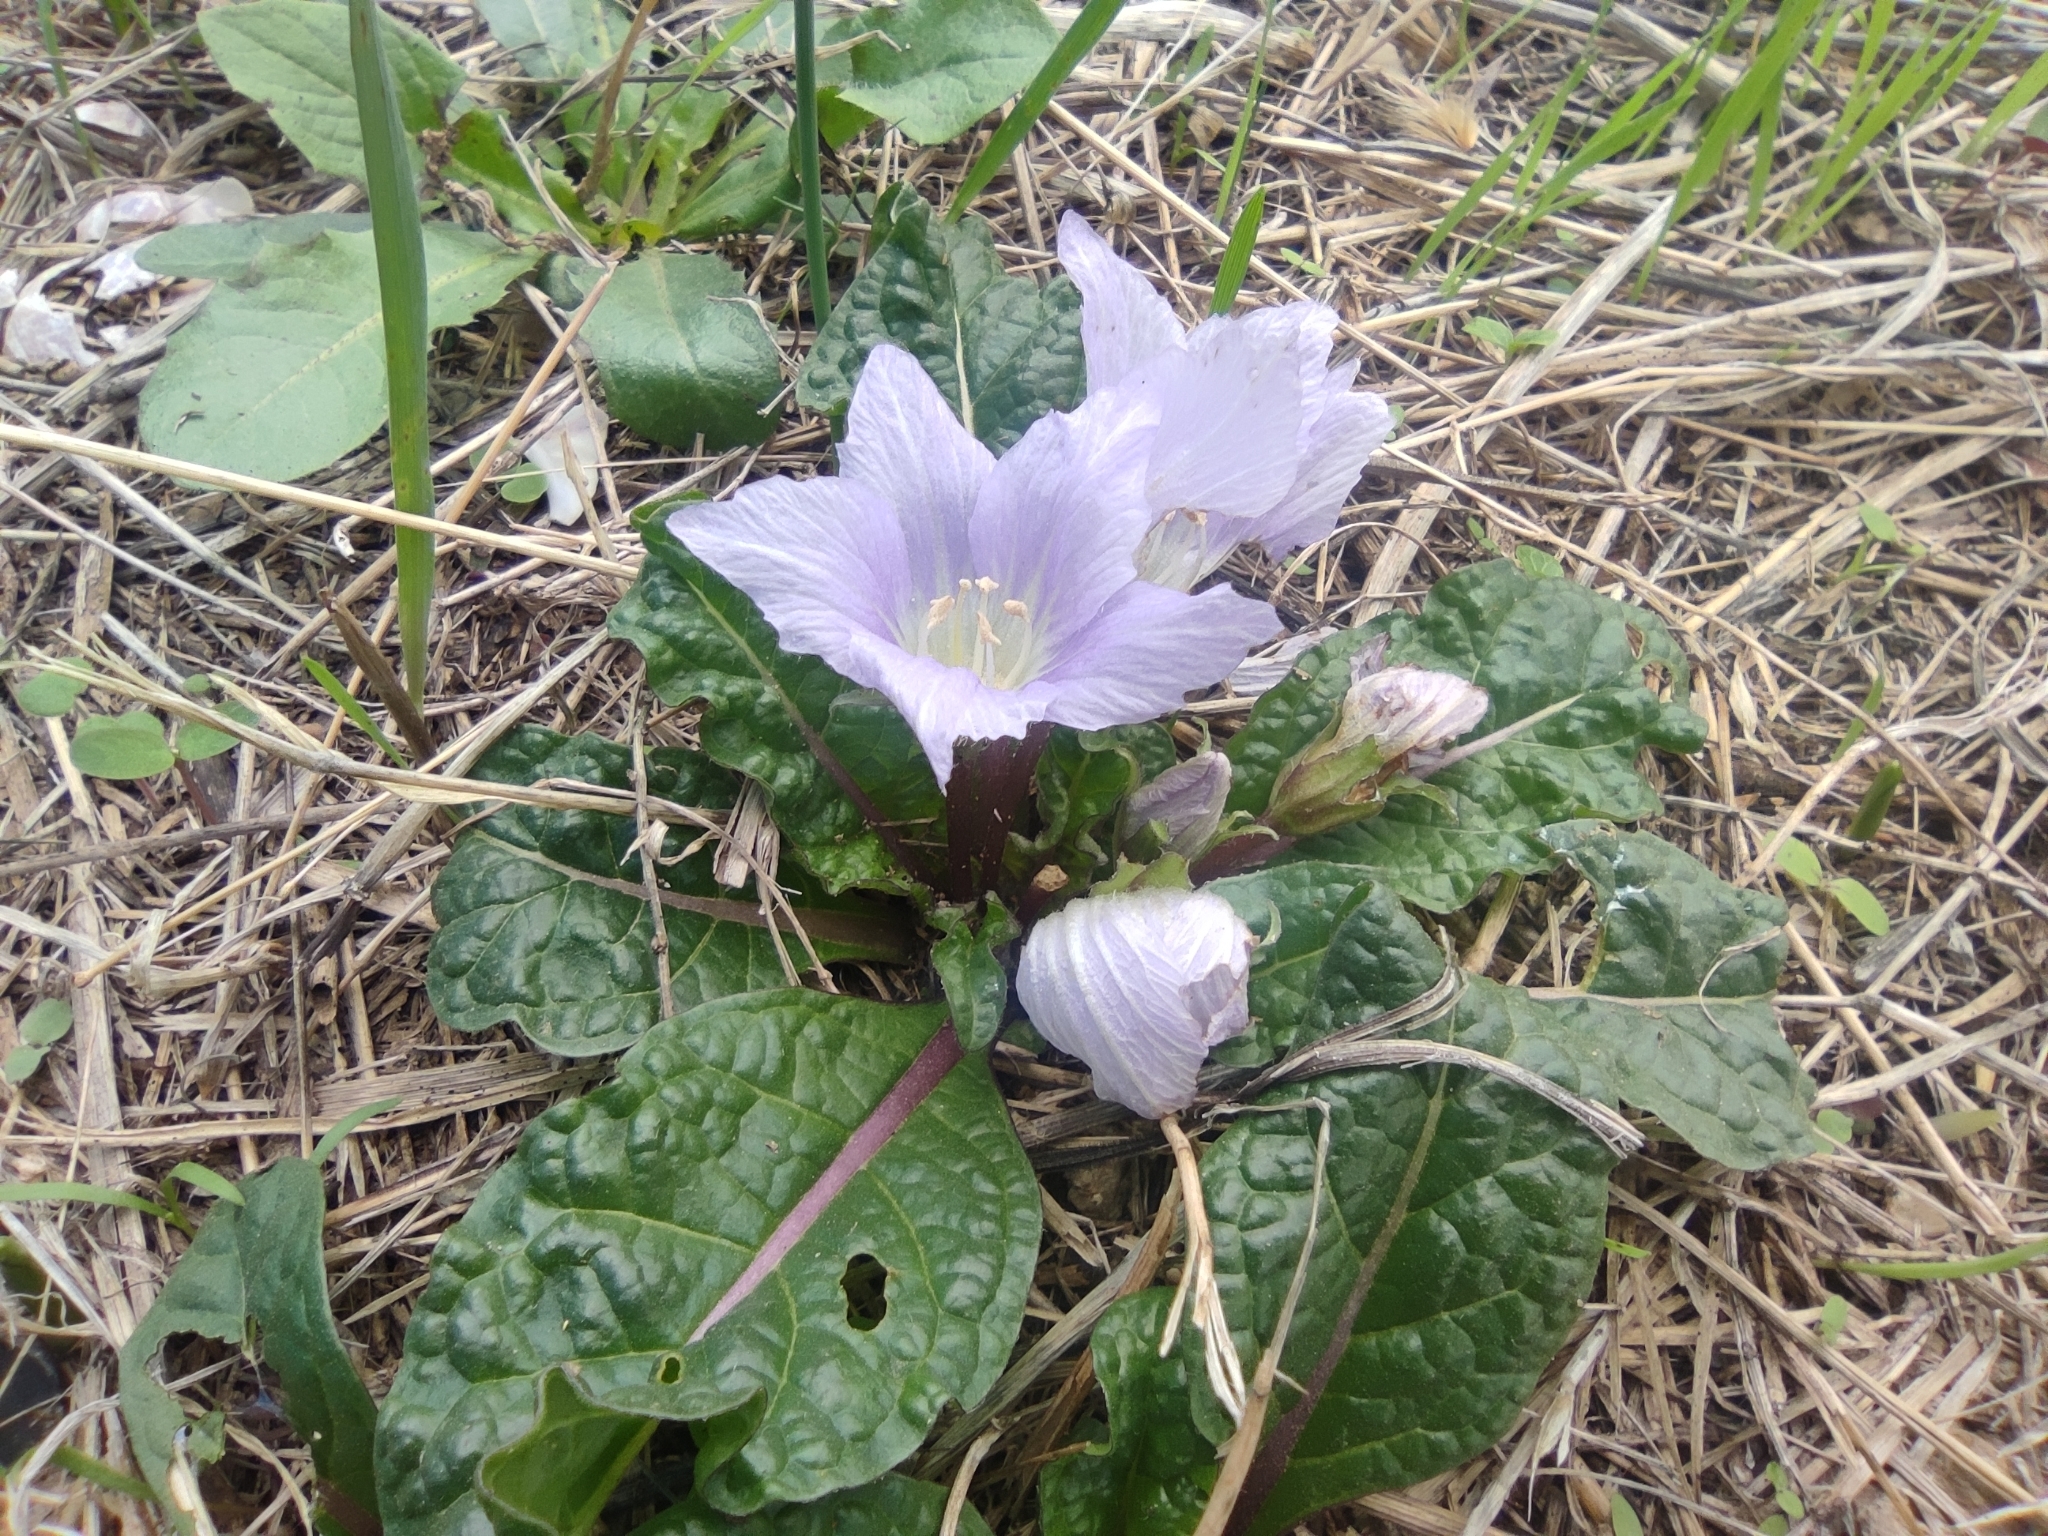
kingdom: Plantae
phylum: Tracheophyta
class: Magnoliopsida
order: Solanales
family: Solanaceae
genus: Mandragora
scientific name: Mandragora officinarum
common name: Mandrake
